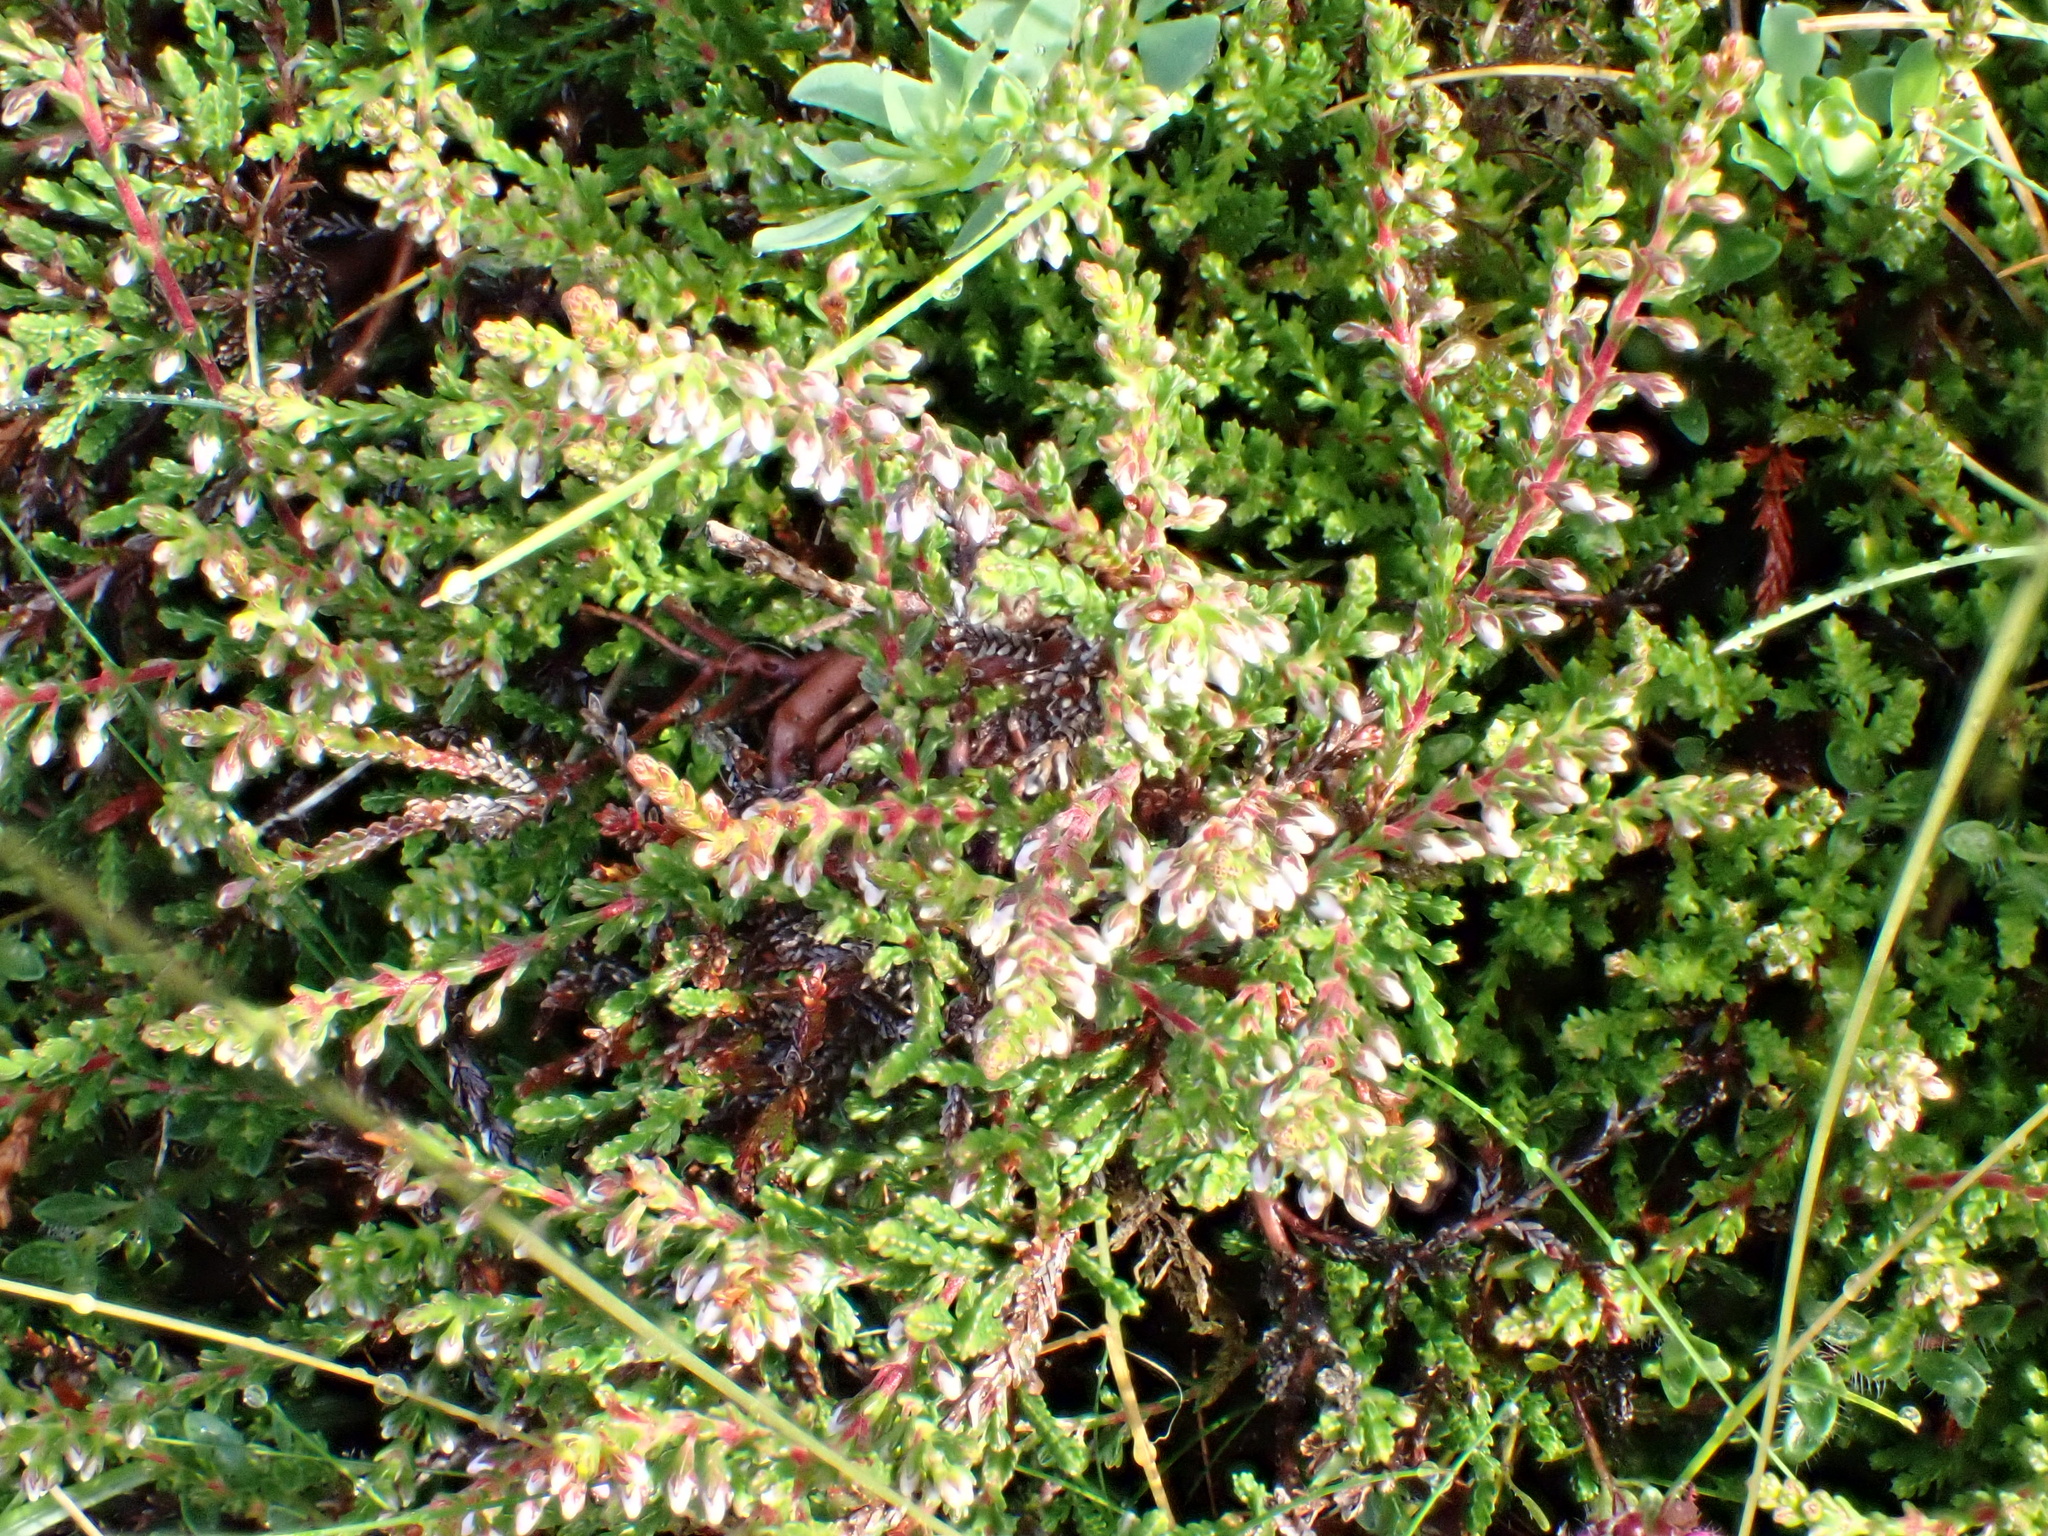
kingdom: Plantae
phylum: Tracheophyta
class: Magnoliopsida
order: Ericales
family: Ericaceae
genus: Calluna
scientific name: Calluna vulgaris
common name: Heather
